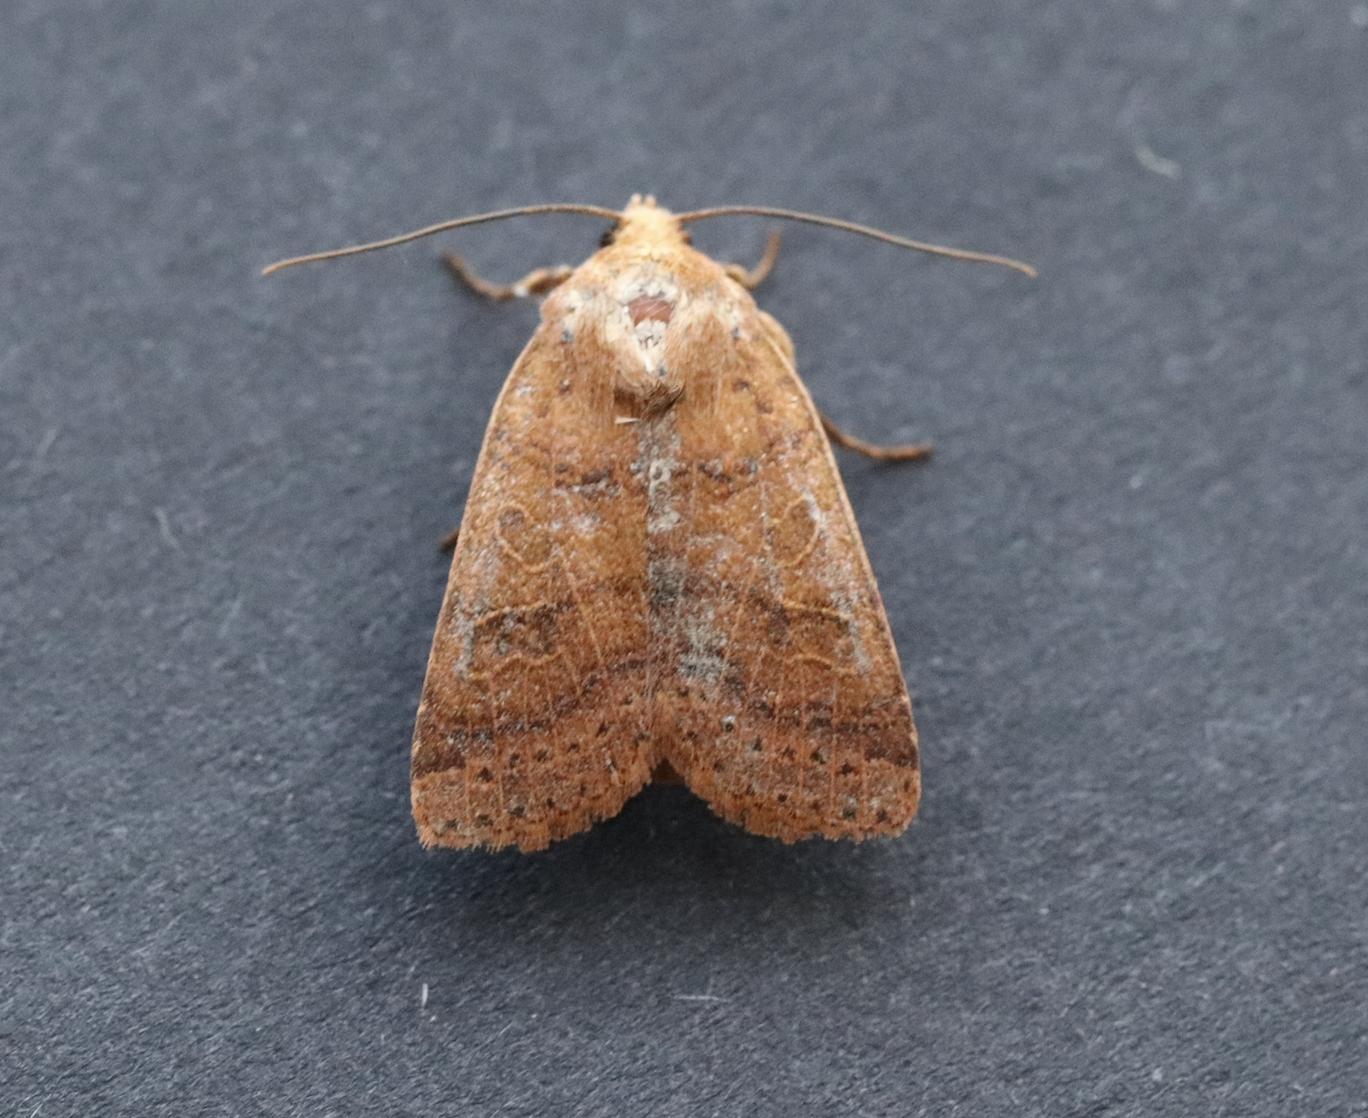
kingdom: Animalia
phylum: Arthropoda
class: Insecta
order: Lepidoptera
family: Noctuidae
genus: Agrochola
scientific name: Agrochola nitida
